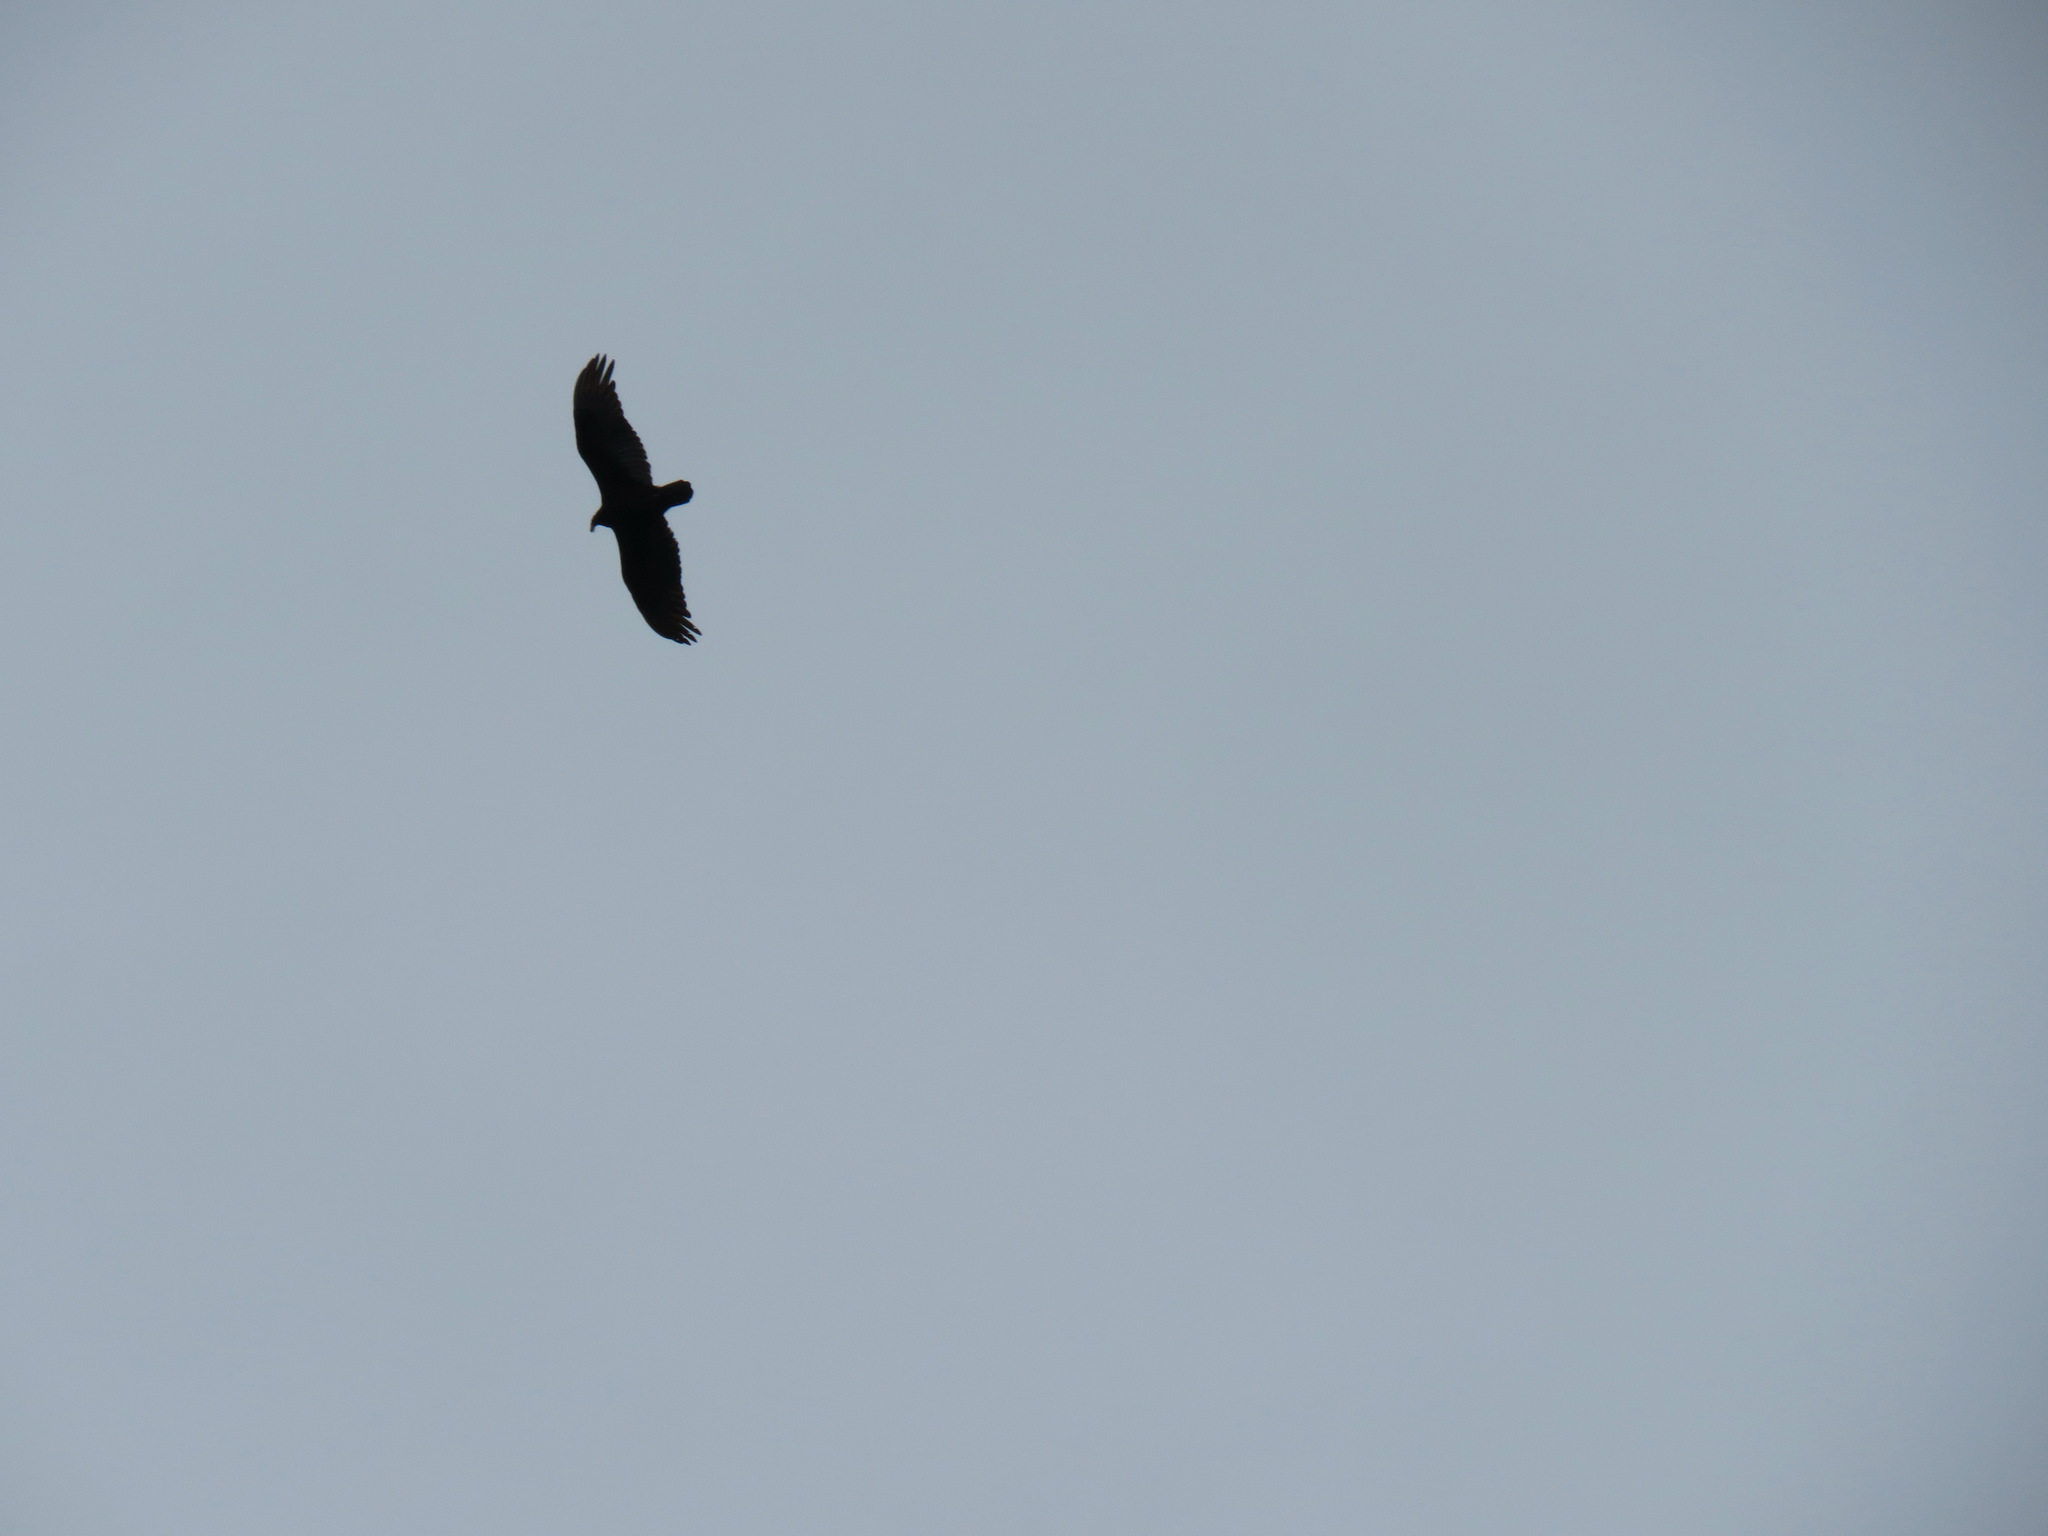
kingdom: Animalia
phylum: Chordata
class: Aves
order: Accipitriformes
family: Cathartidae
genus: Cathartes
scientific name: Cathartes aura
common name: Turkey vulture
